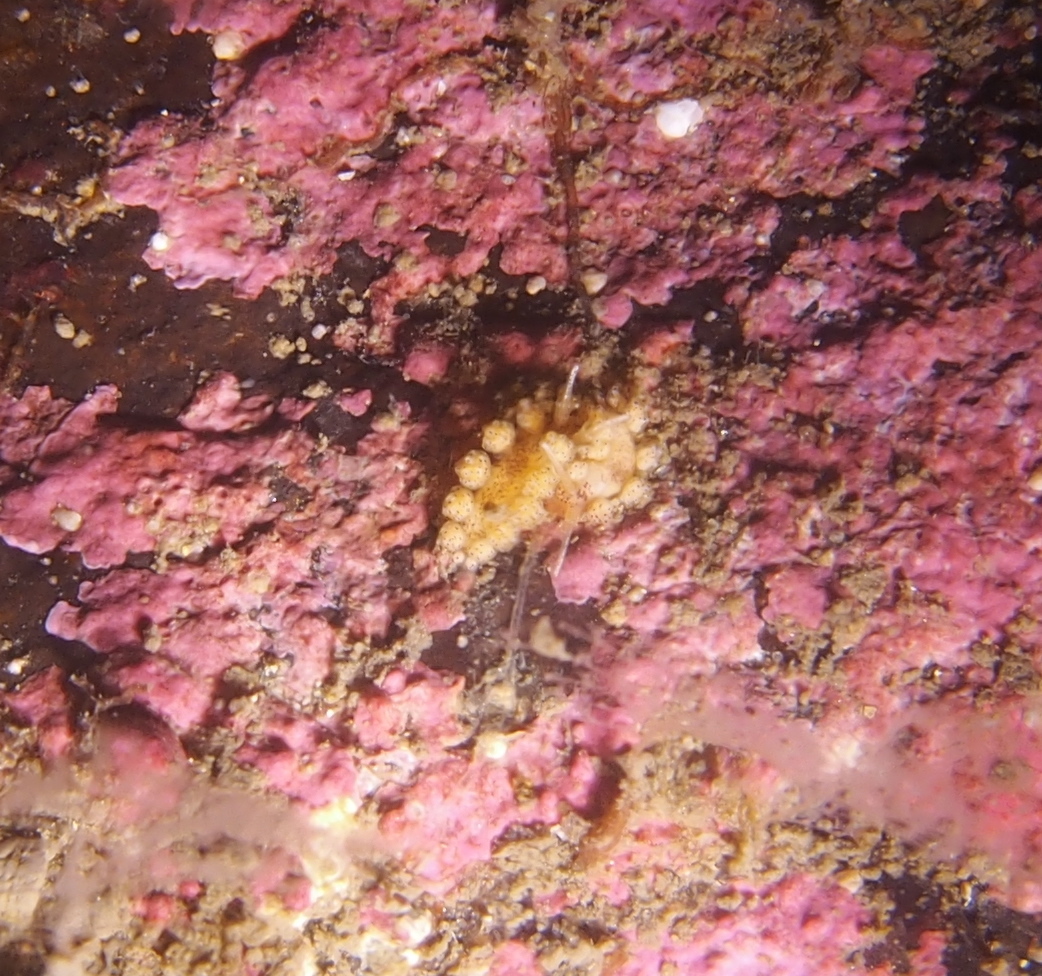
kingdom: Animalia
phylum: Mollusca
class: Gastropoda
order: Nudibranchia
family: Dotidae
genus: Doto
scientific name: Doto dunnei
